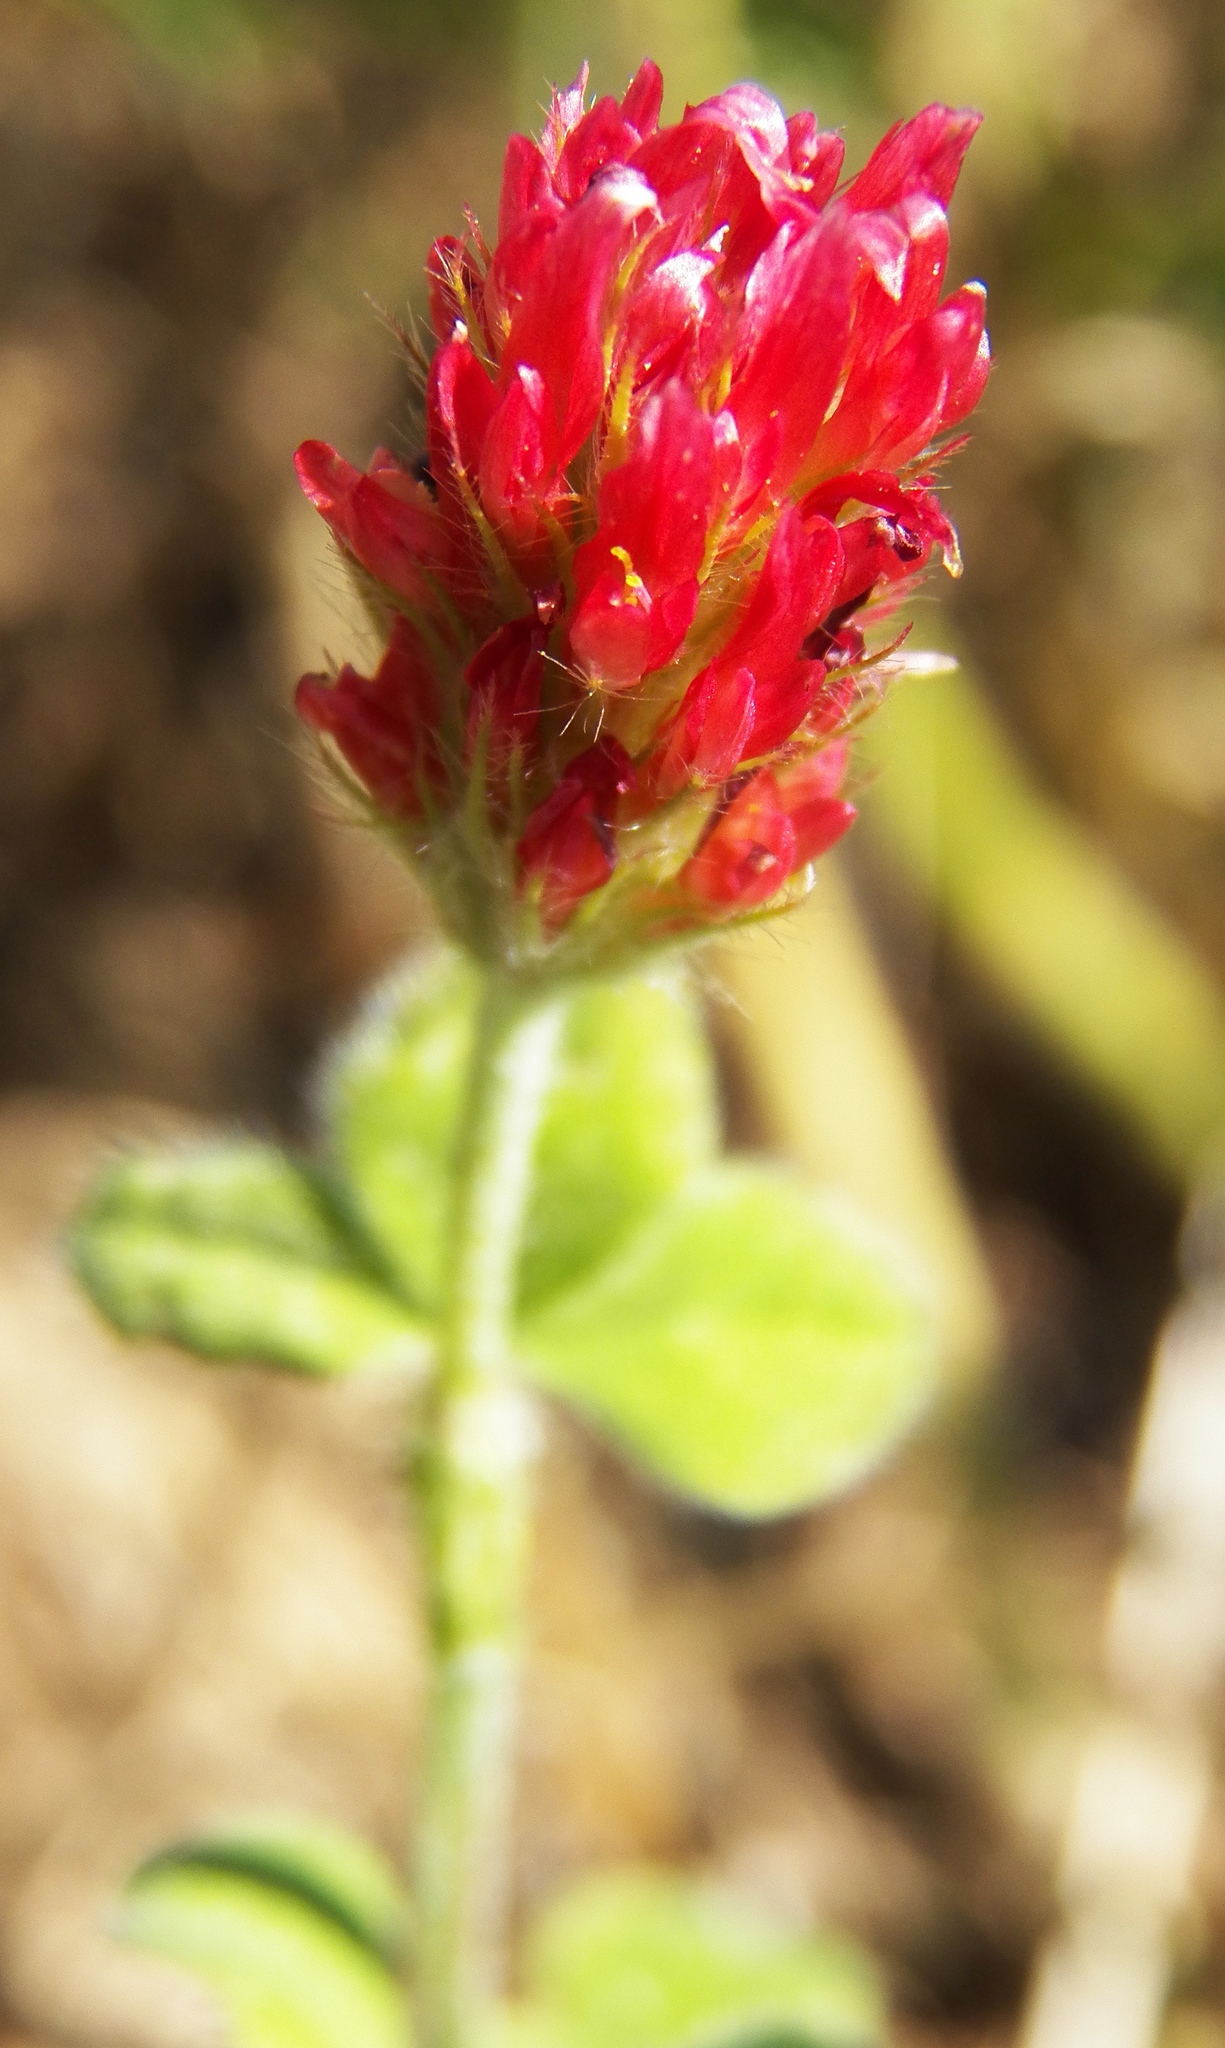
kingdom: Plantae
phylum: Tracheophyta
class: Magnoliopsida
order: Fabales
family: Fabaceae
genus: Trifolium
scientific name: Trifolium incarnatum
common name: Crimson clover
